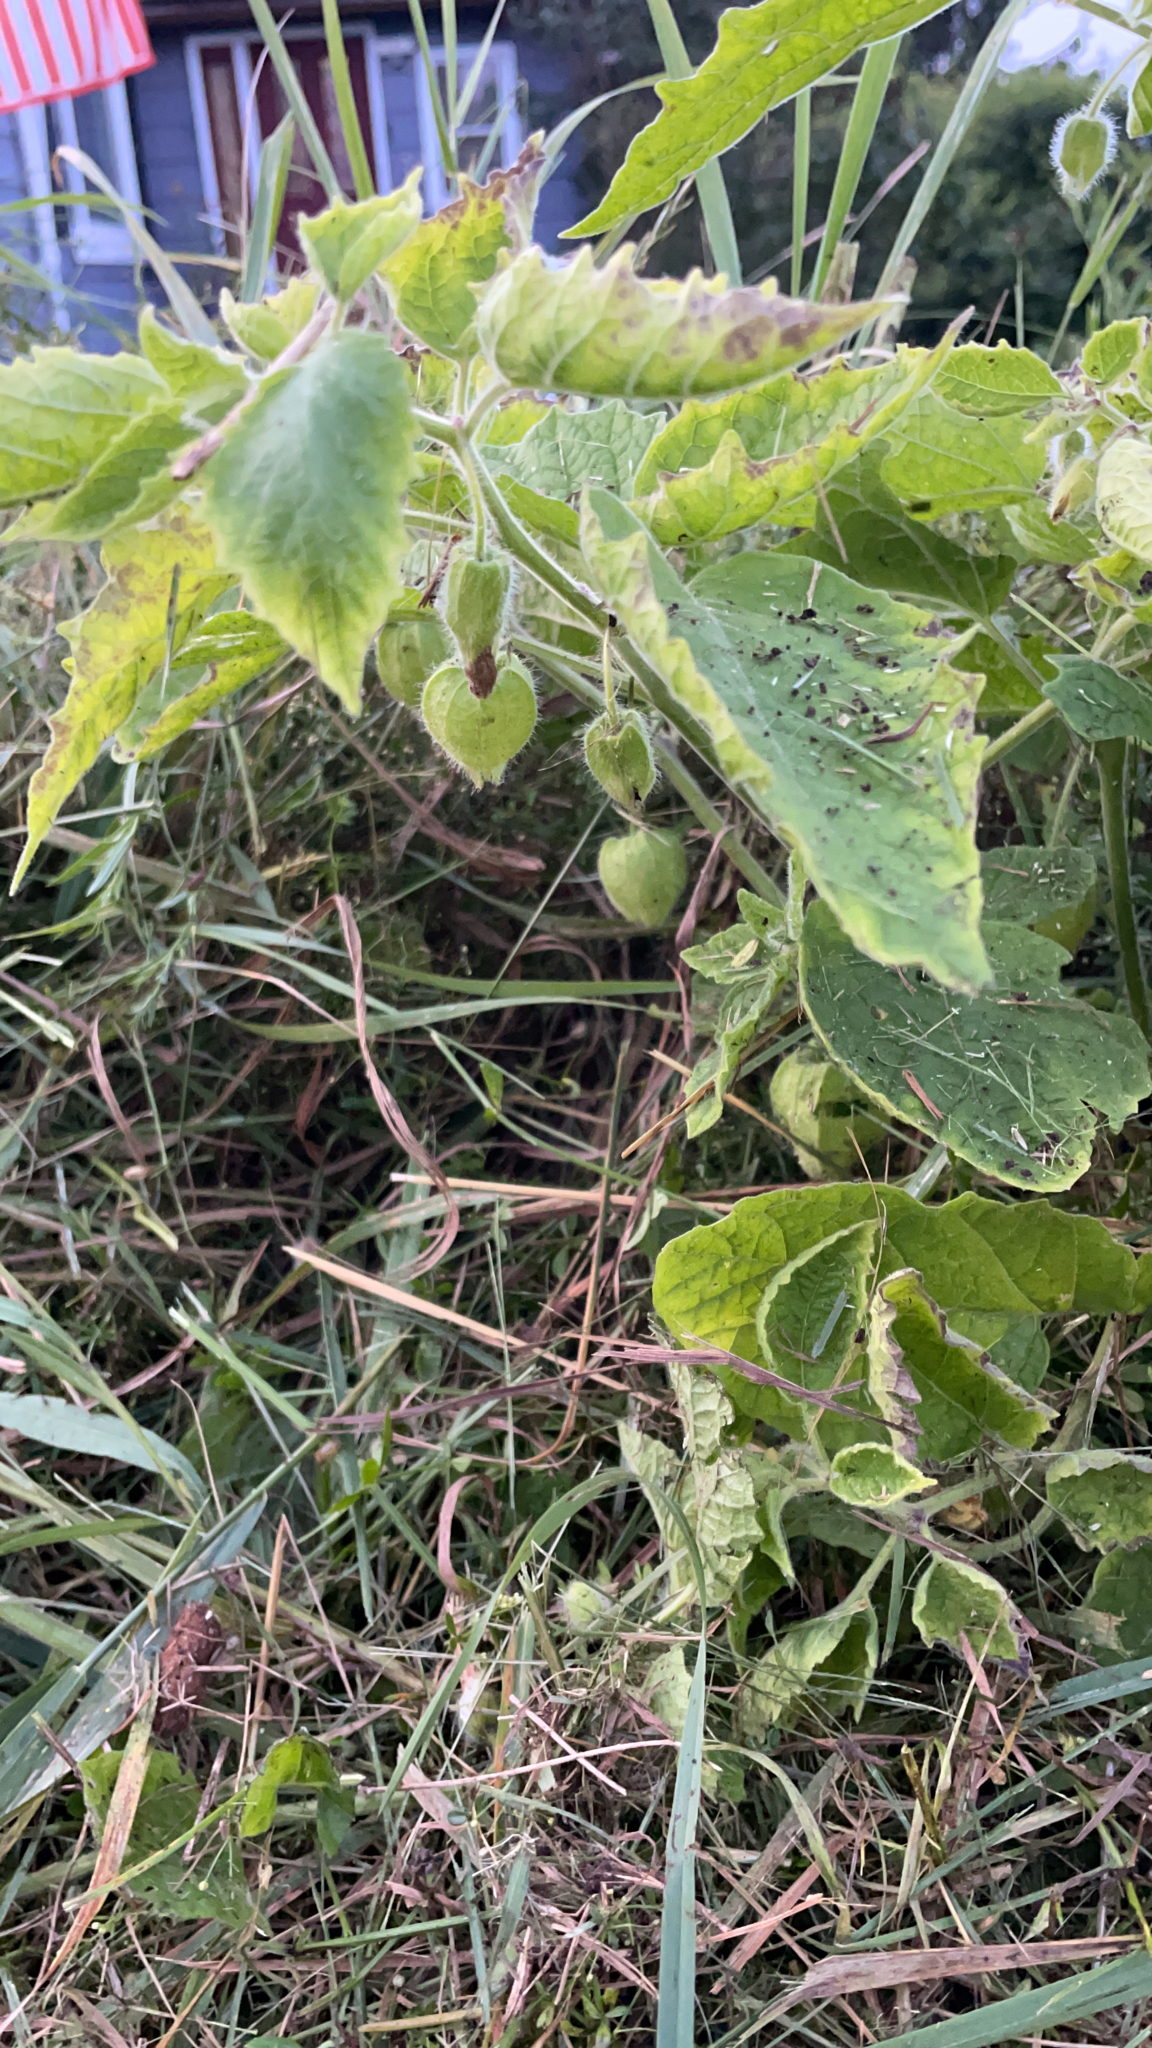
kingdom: Plantae
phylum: Tracheophyta
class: Magnoliopsida
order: Solanales
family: Solanaceae
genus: Physalis
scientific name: Physalis heterophylla
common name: Clammy ground-cherry
